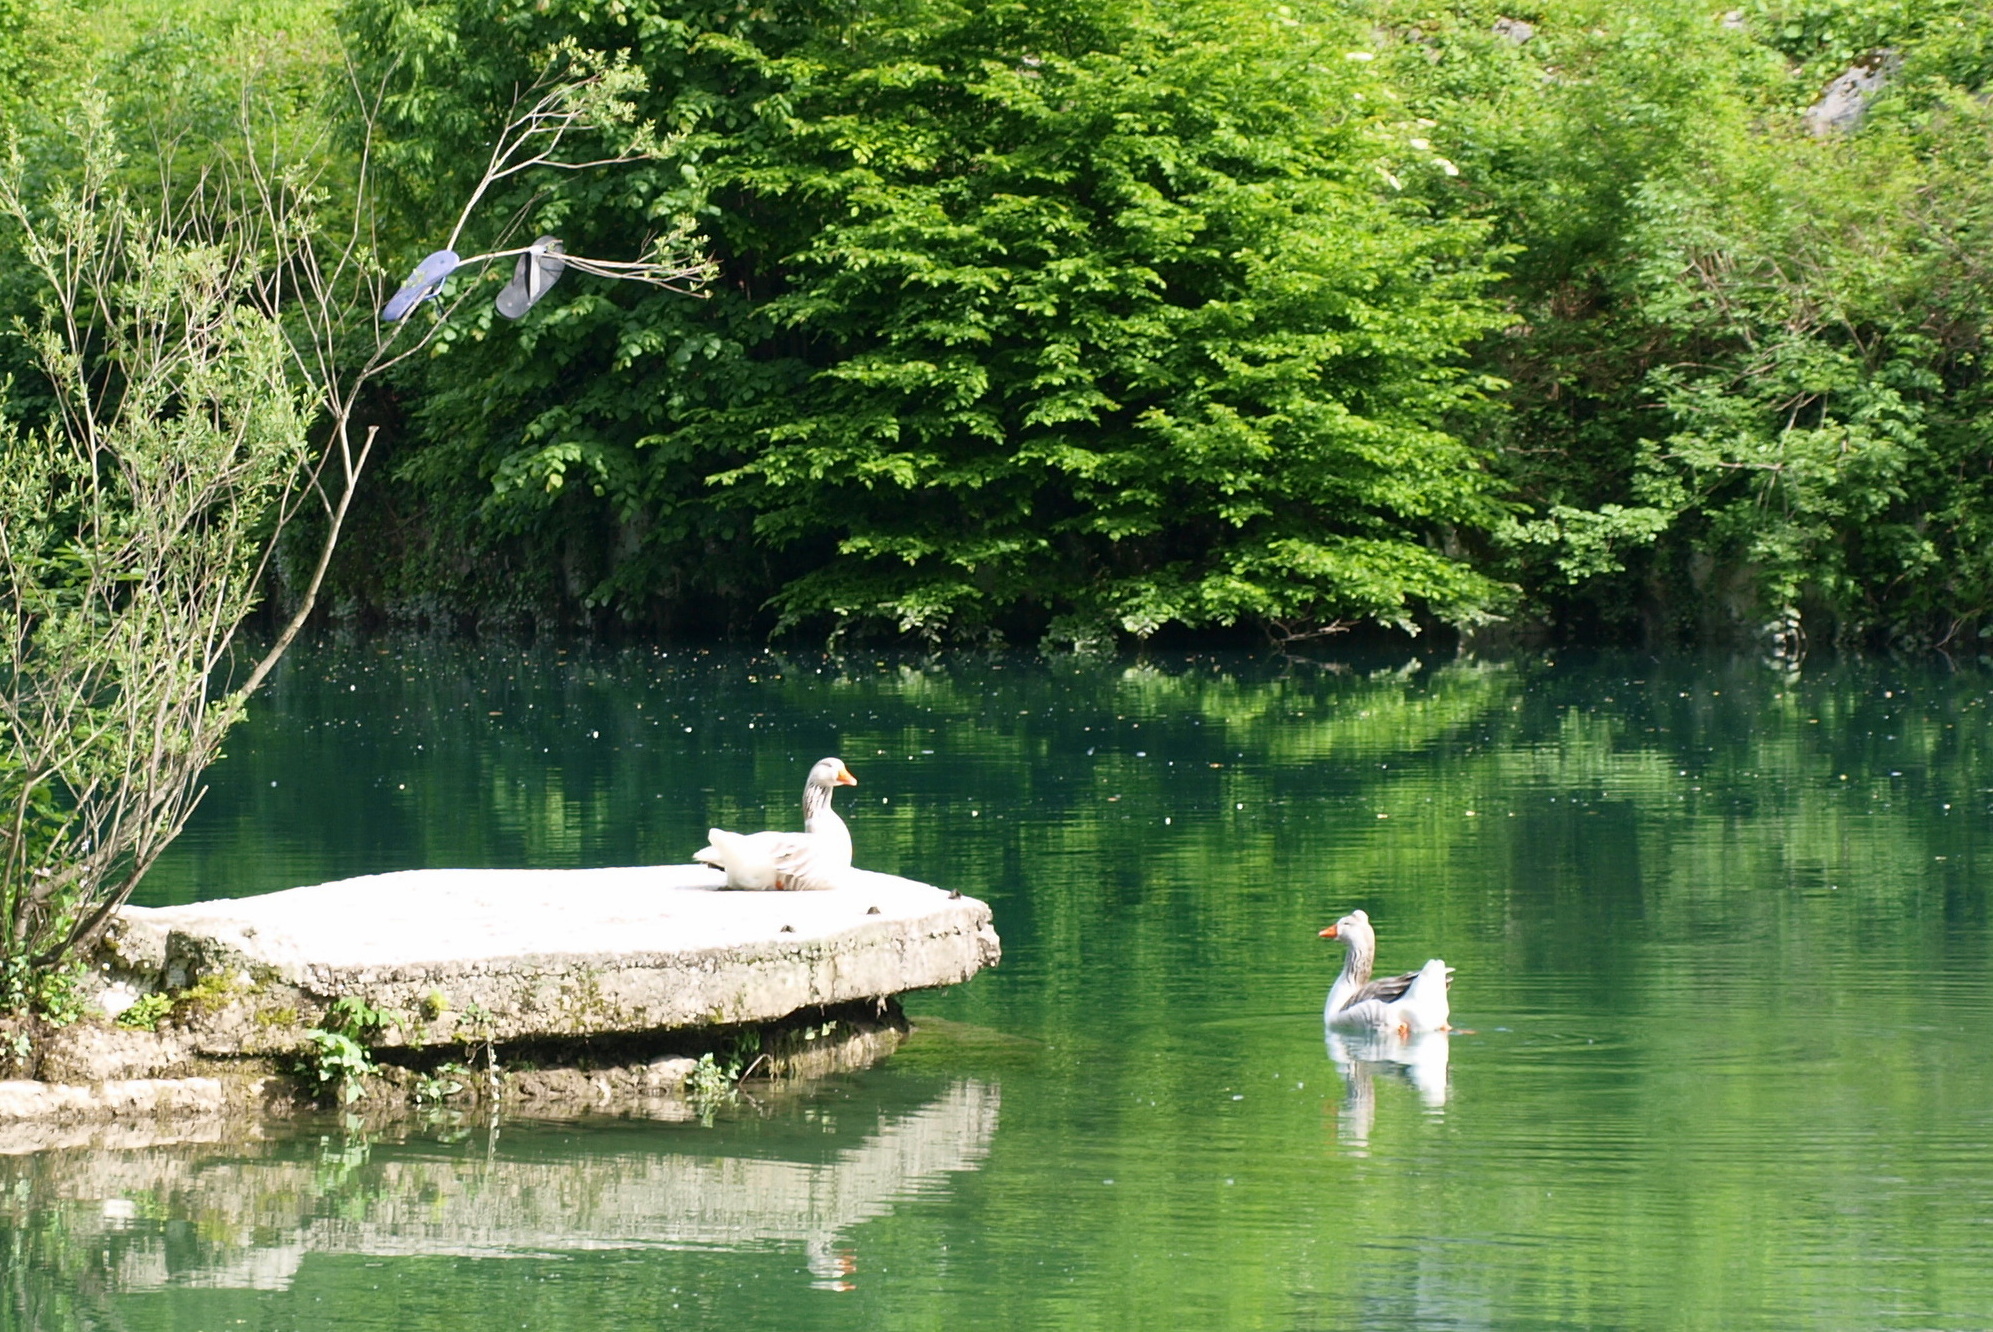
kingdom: Animalia
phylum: Chordata
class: Aves
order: Anseriformes
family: Anatidae
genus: Anser
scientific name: Anser anser
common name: Greylag goose
